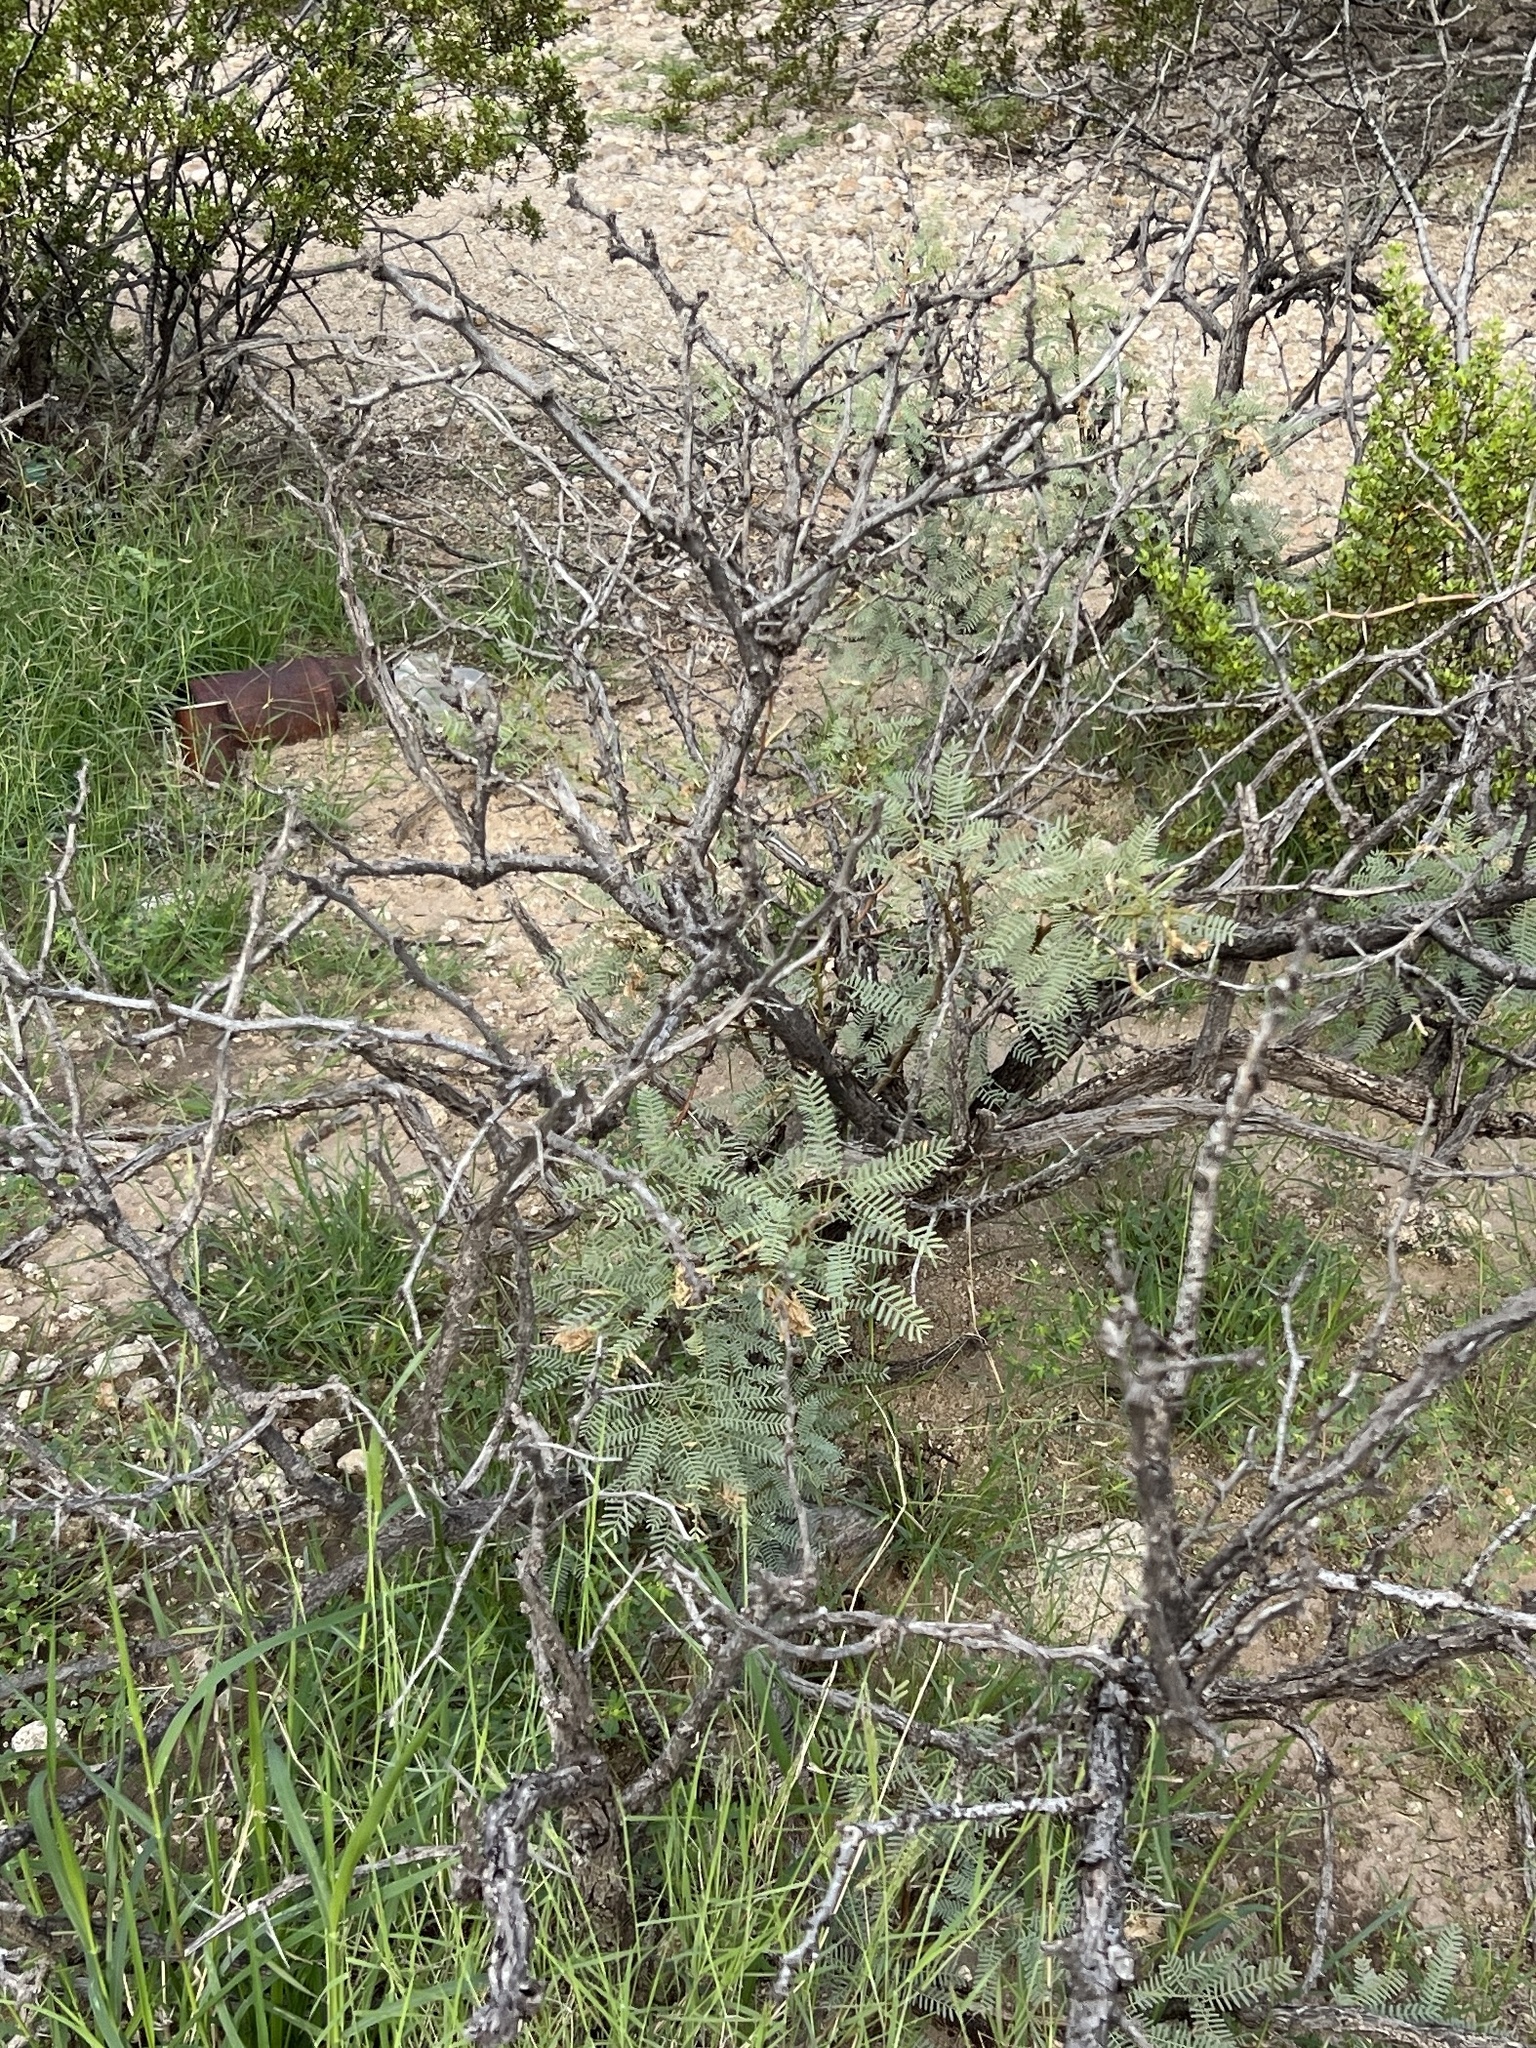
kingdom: Plantae
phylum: Tracheophyta
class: Magnoliopsida
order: Fabales
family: Fabaceae
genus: Prosopis
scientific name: Prosopis glandulosa
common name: Honey mesquite
